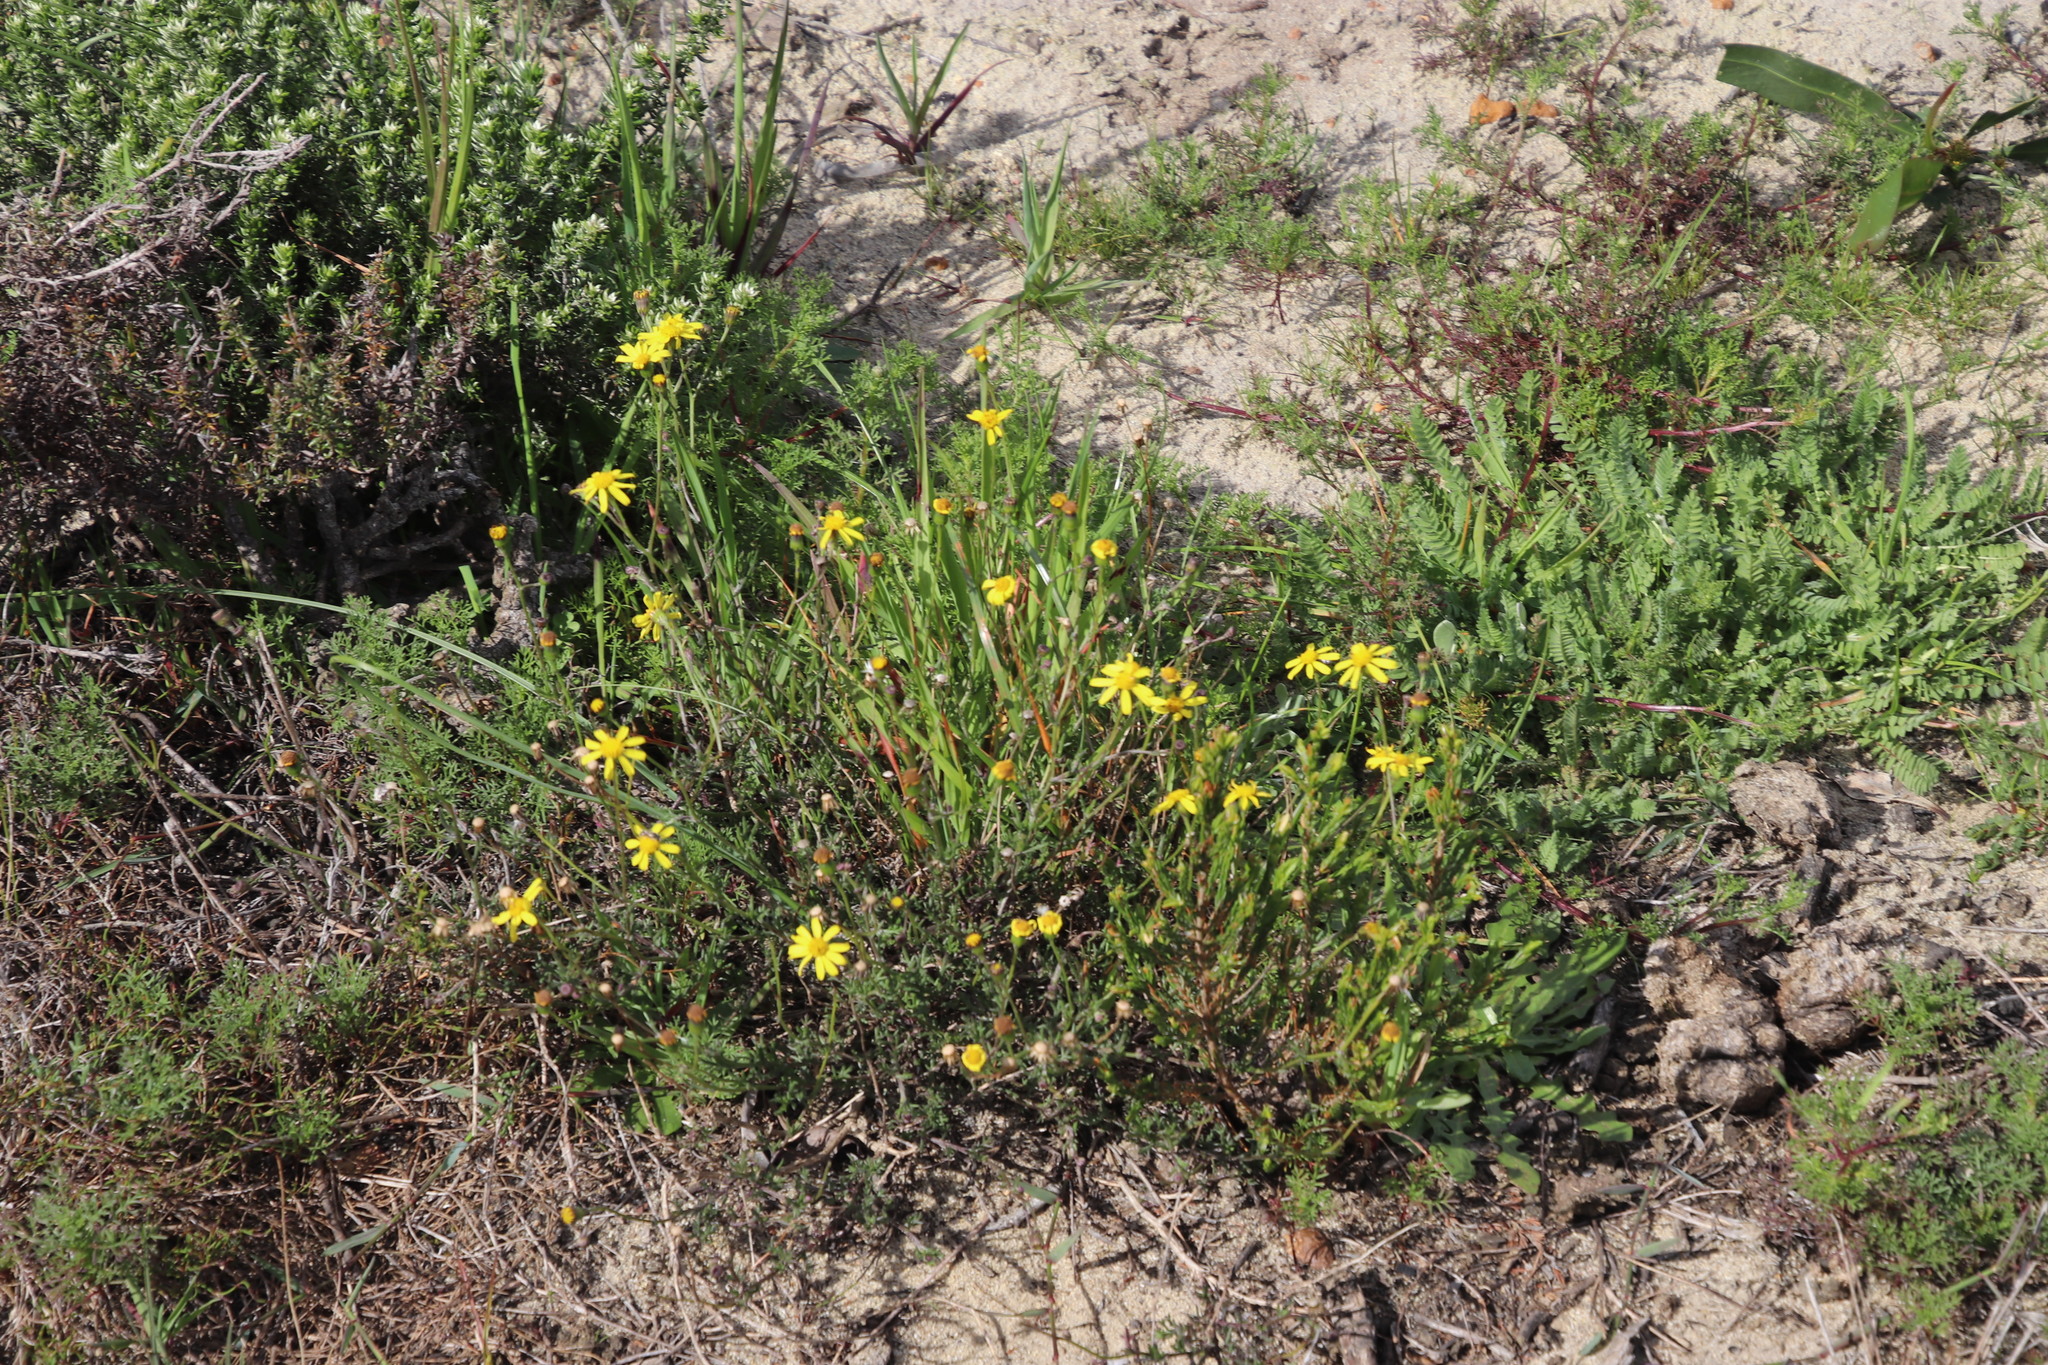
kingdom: Plantae
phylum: Tracheophyta
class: Magnoliopsida
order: Asterales
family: Asteraceae
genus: Senecio
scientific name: Senecio burchellii
